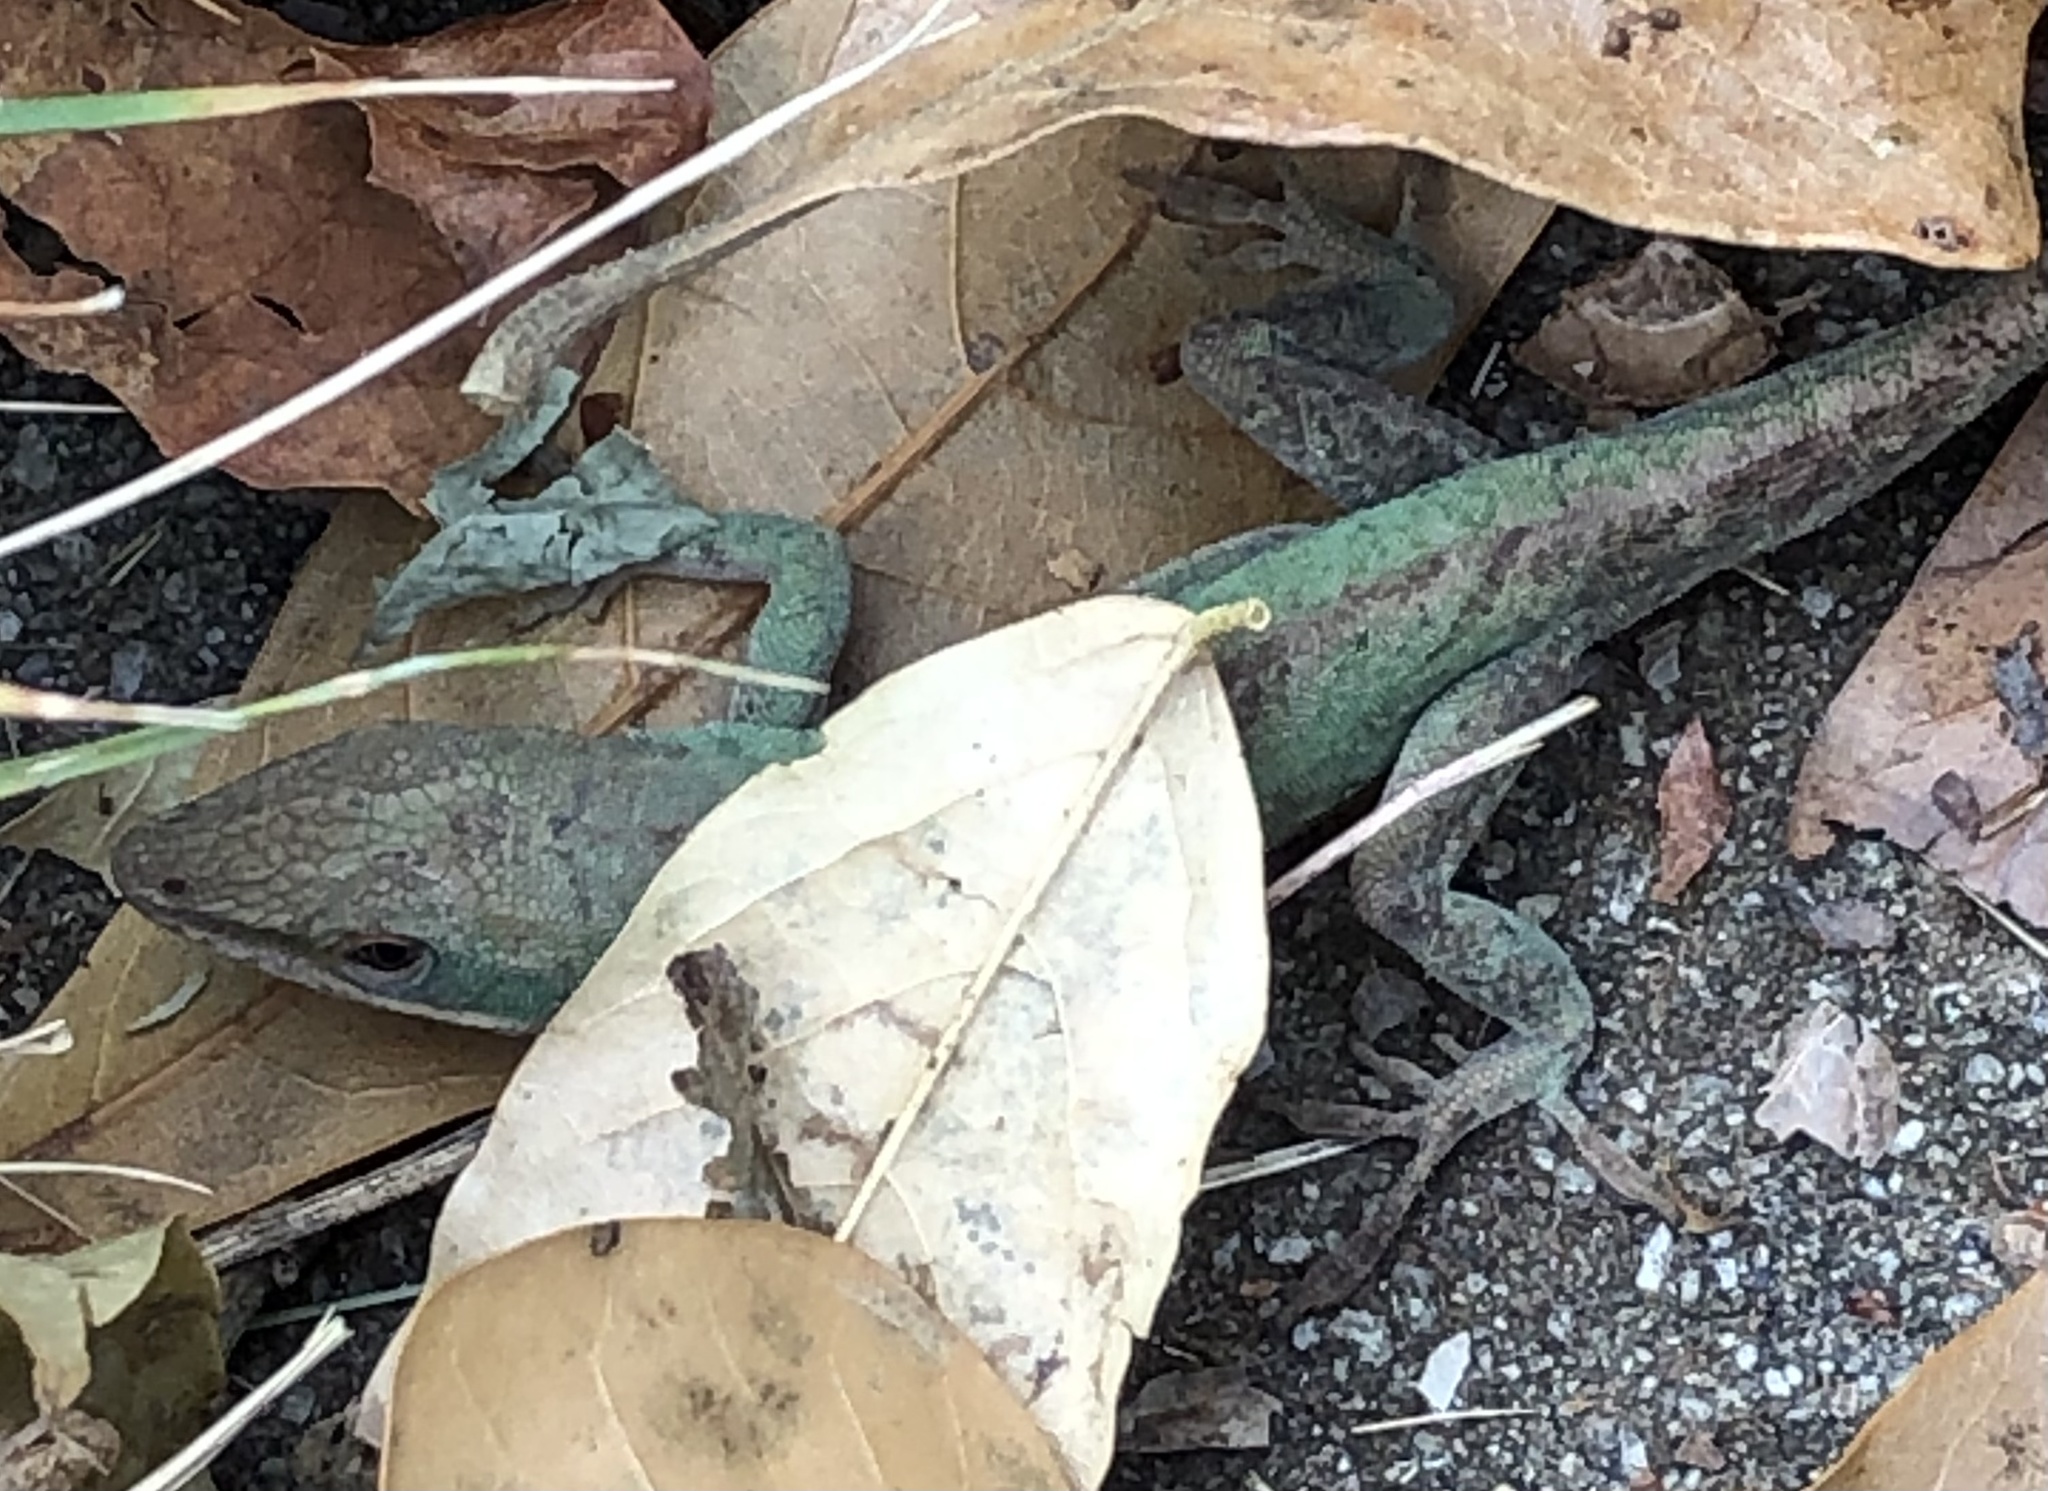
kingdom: Animalia
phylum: Chordata
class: Squamata
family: Dactyloidae
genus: Anolis
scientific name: Anolis carolinensis
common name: Green anole
